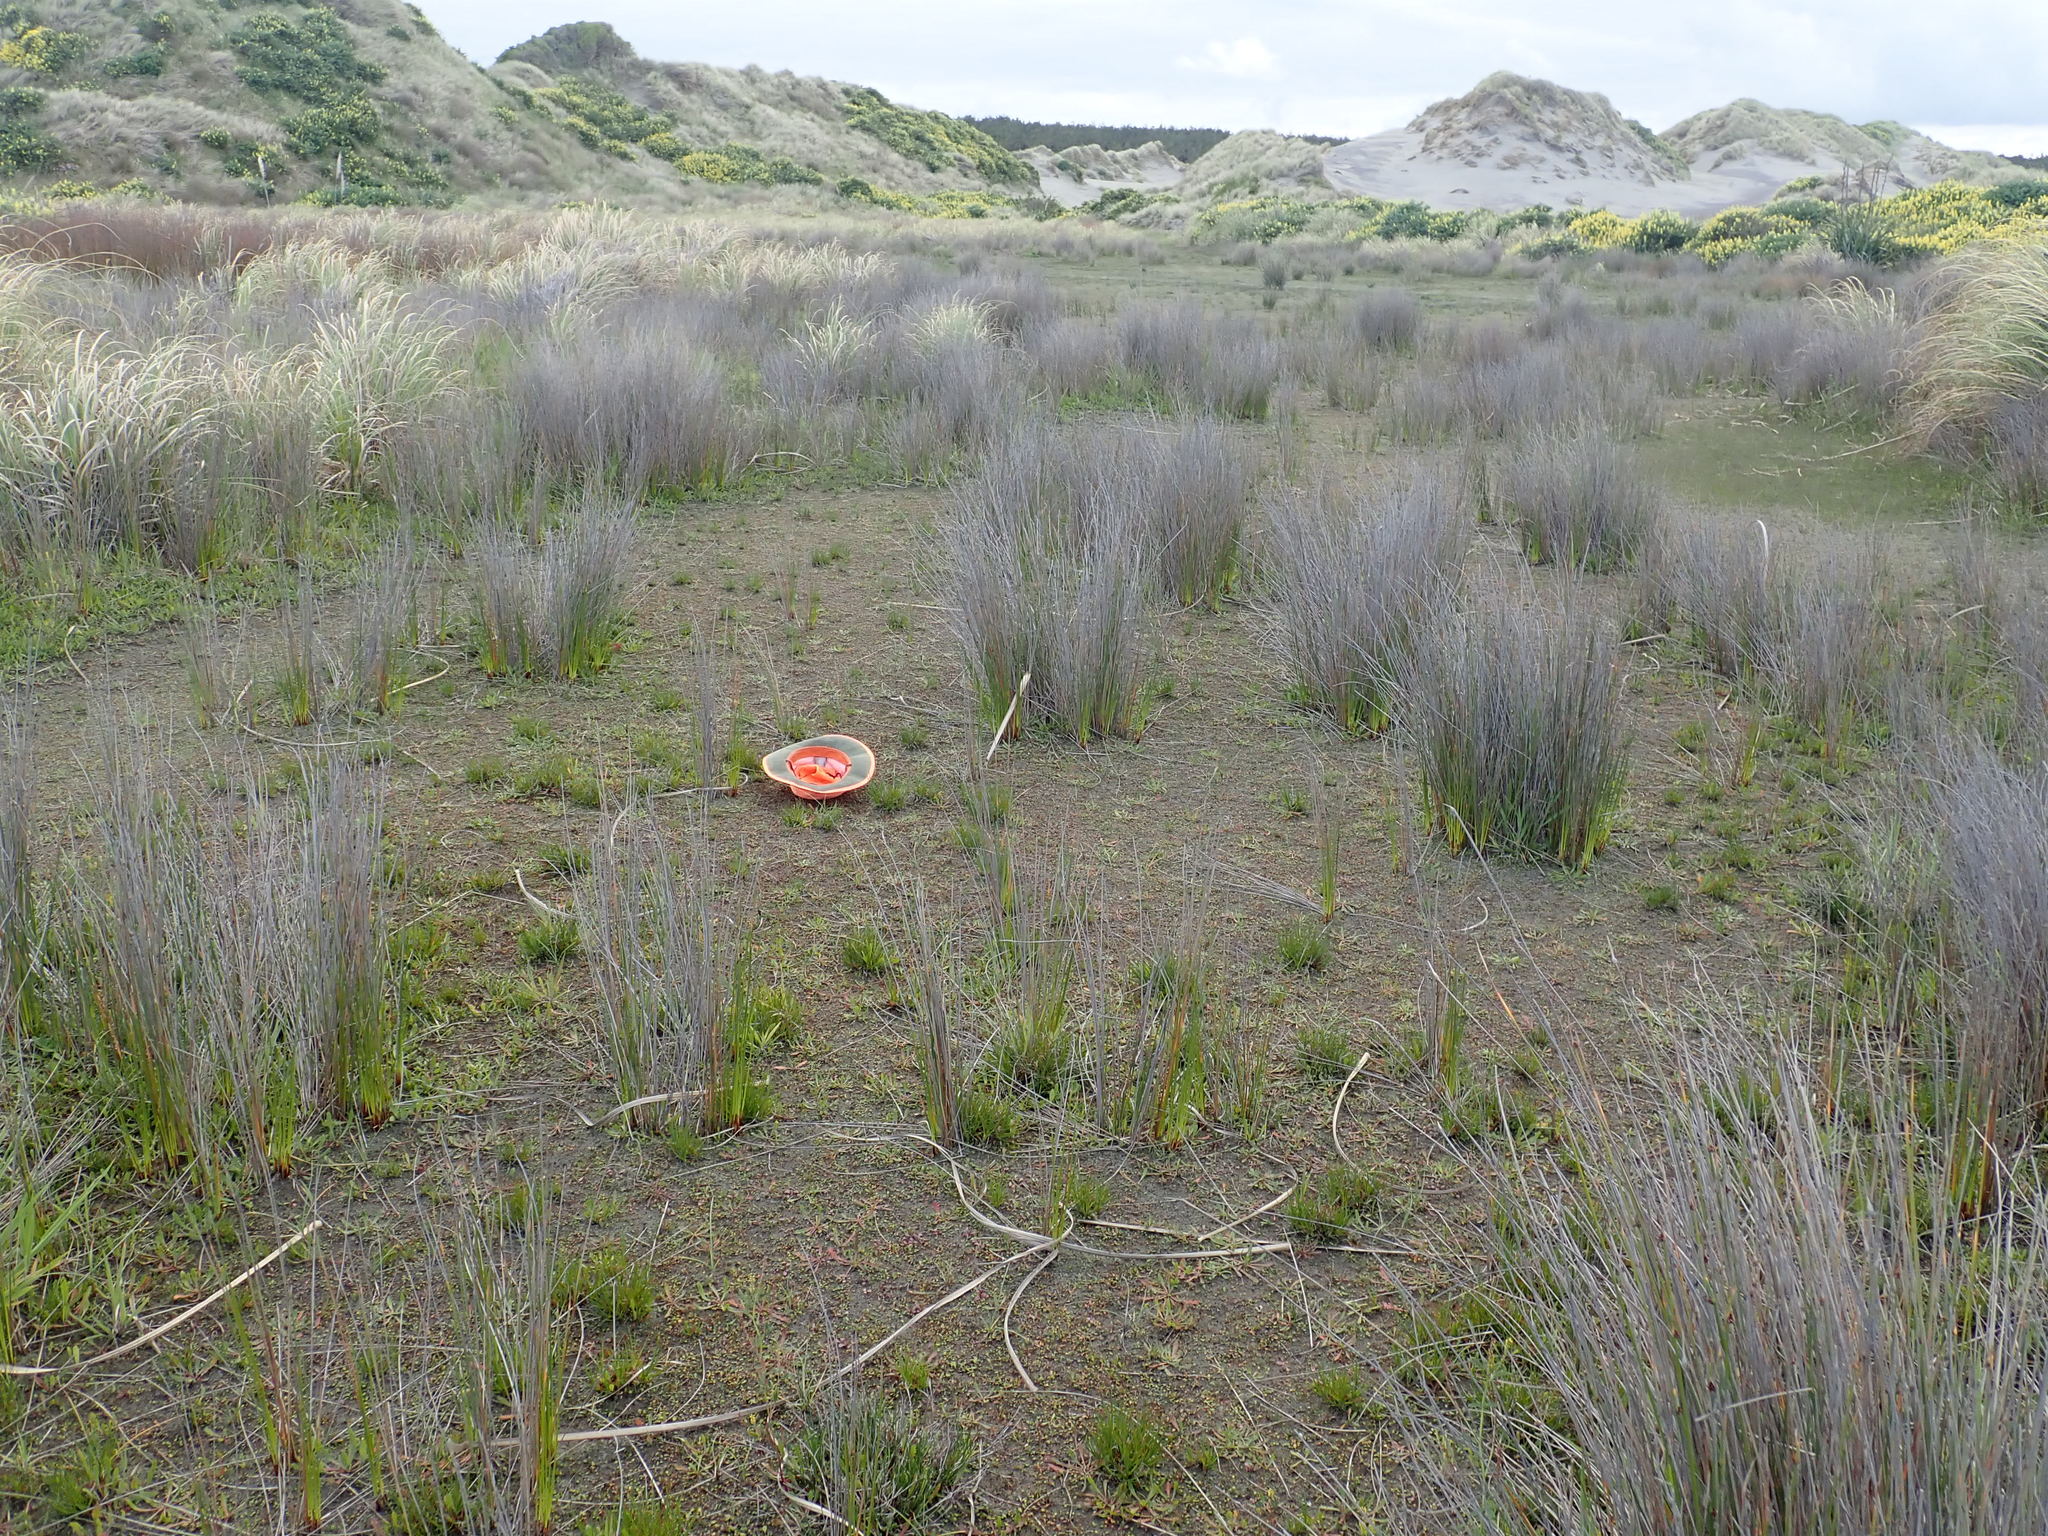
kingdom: Plantae
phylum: Tracheophyta
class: Magnoliopsida
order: Asterales
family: Goodeniaceae
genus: Goodenia
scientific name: Goodenia radicans
